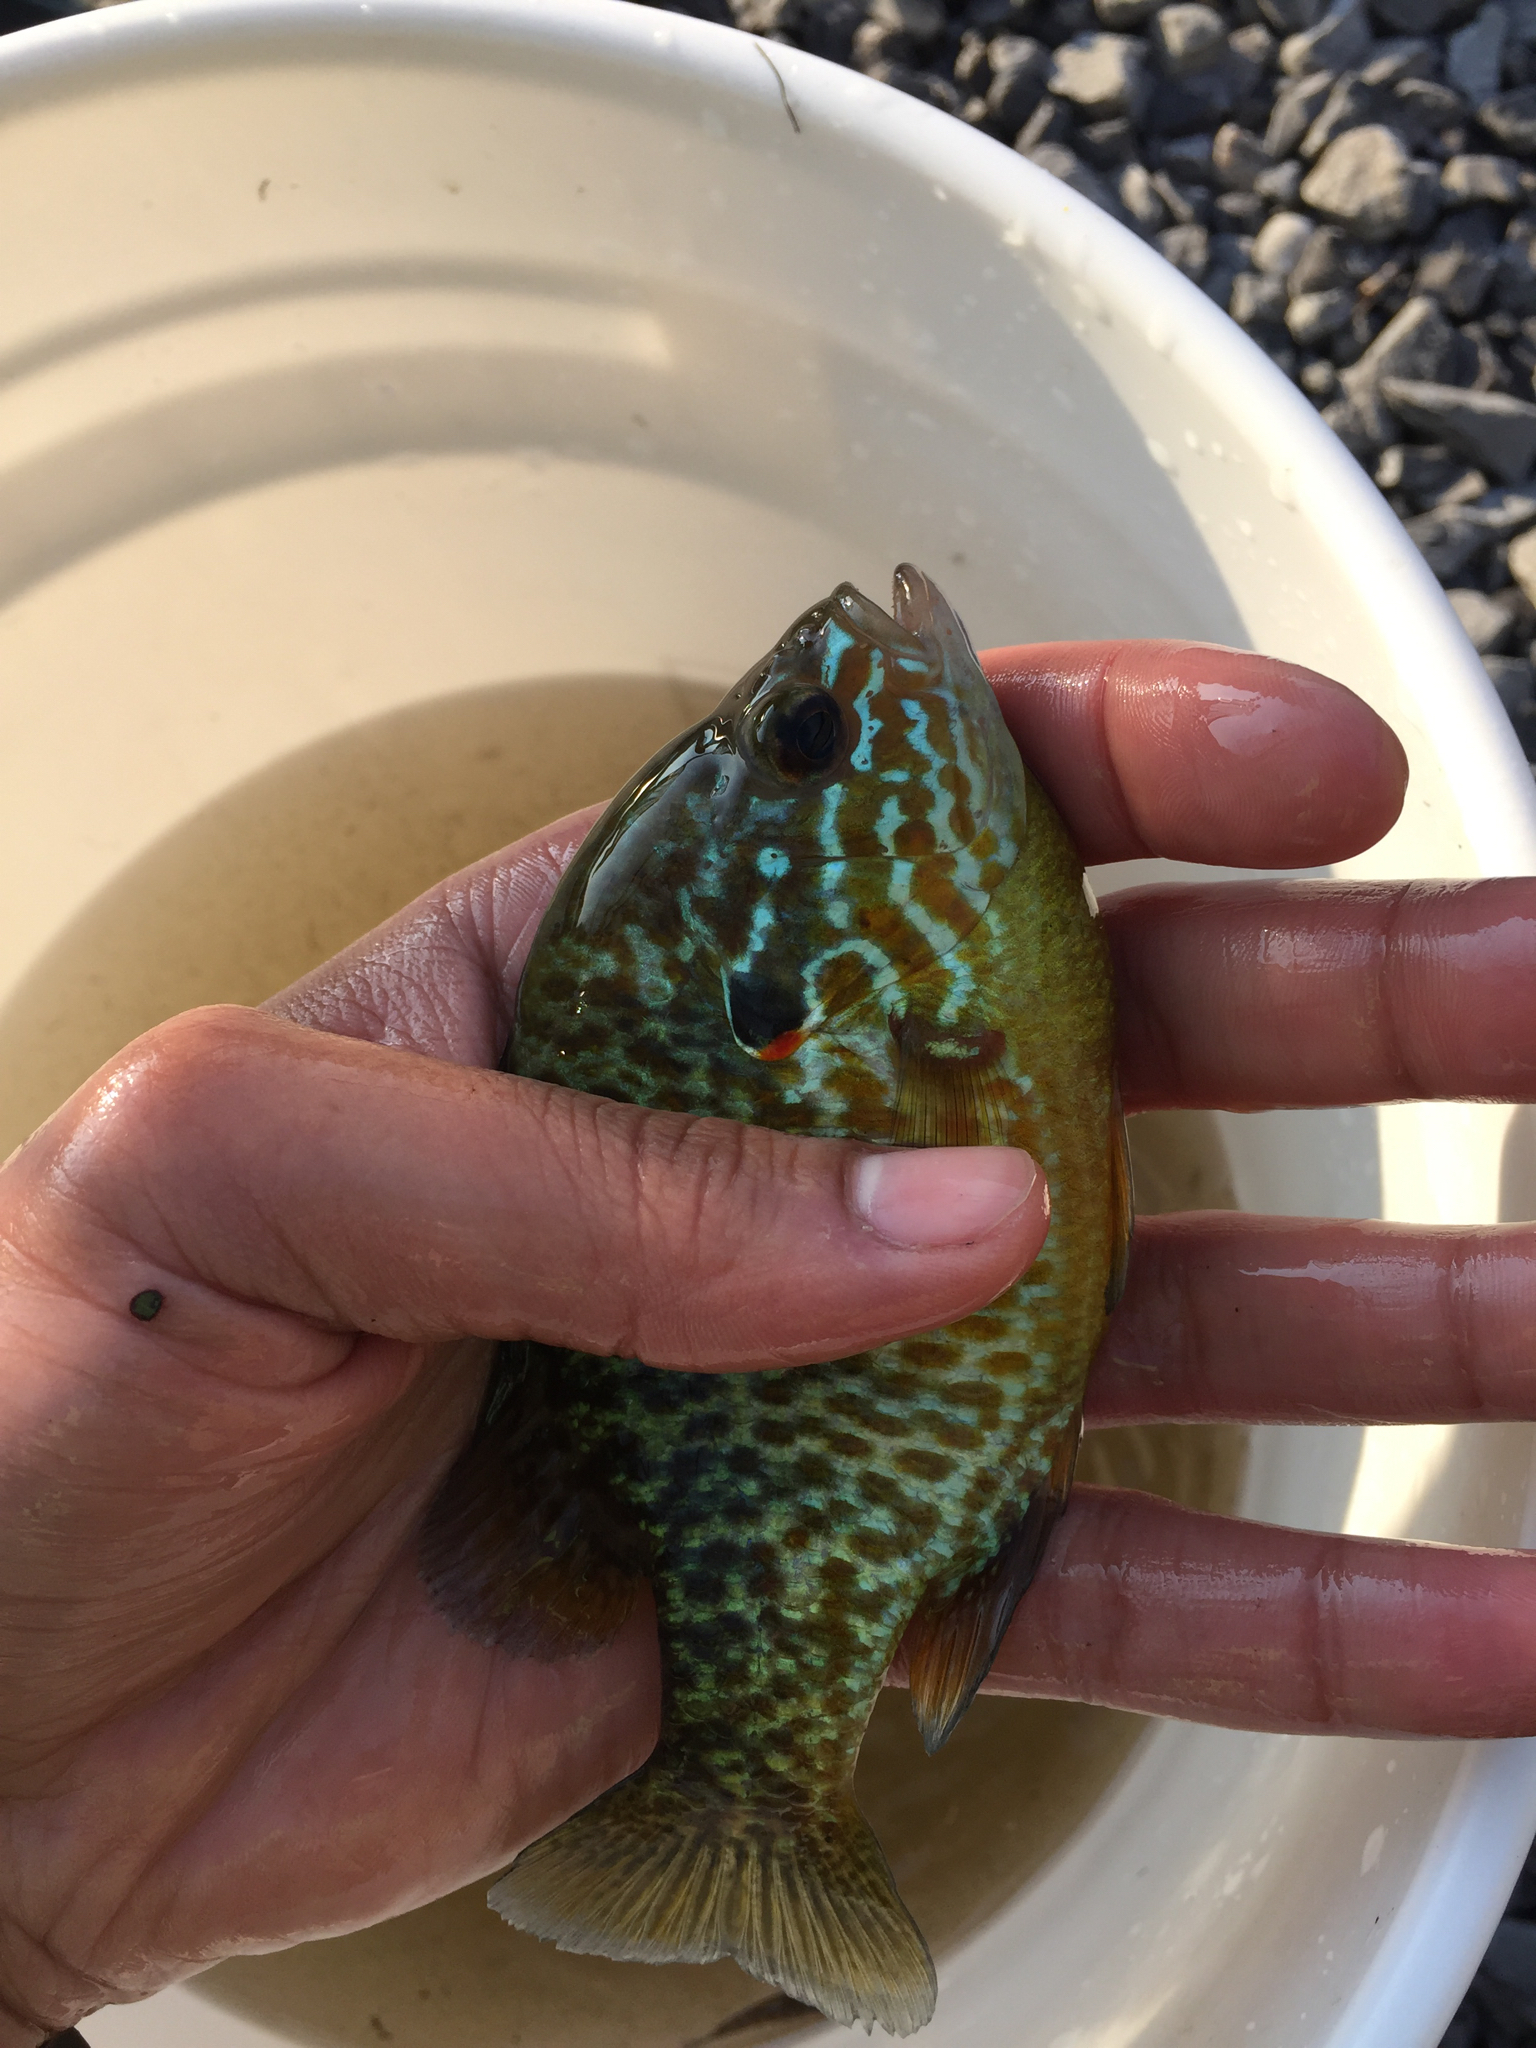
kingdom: Animalia
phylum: Chordata
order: Perciformes
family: Centrarchidae
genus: Lepomis
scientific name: Lepomis gibbosus
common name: Pumpkinseed
